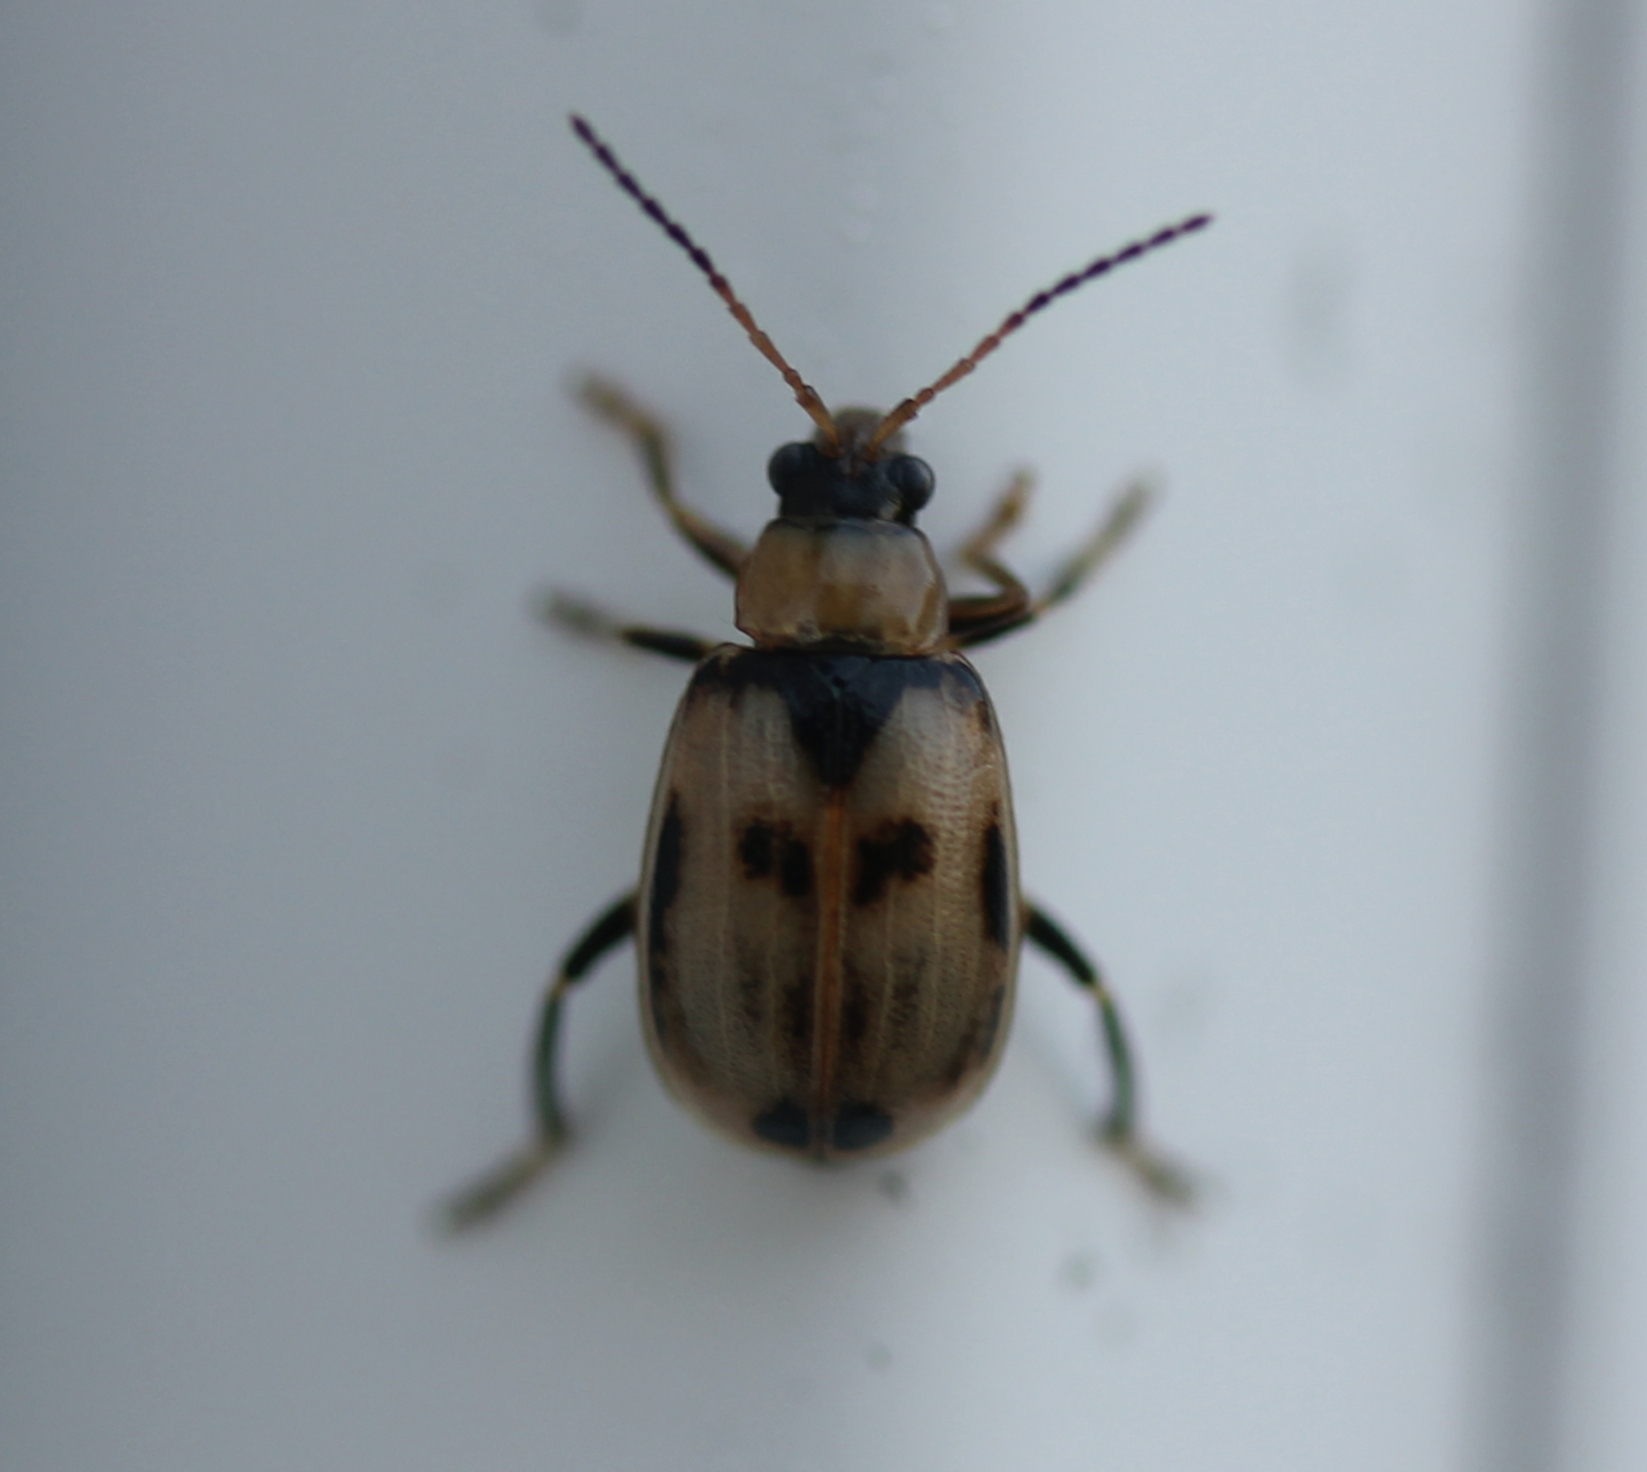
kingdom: Animalia
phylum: Arthropoda
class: Insecta
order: Coleoptera
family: Chrysomelidae
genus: Cerotoma
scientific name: Cerotoma trifurcata
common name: Bean leaf beetle
